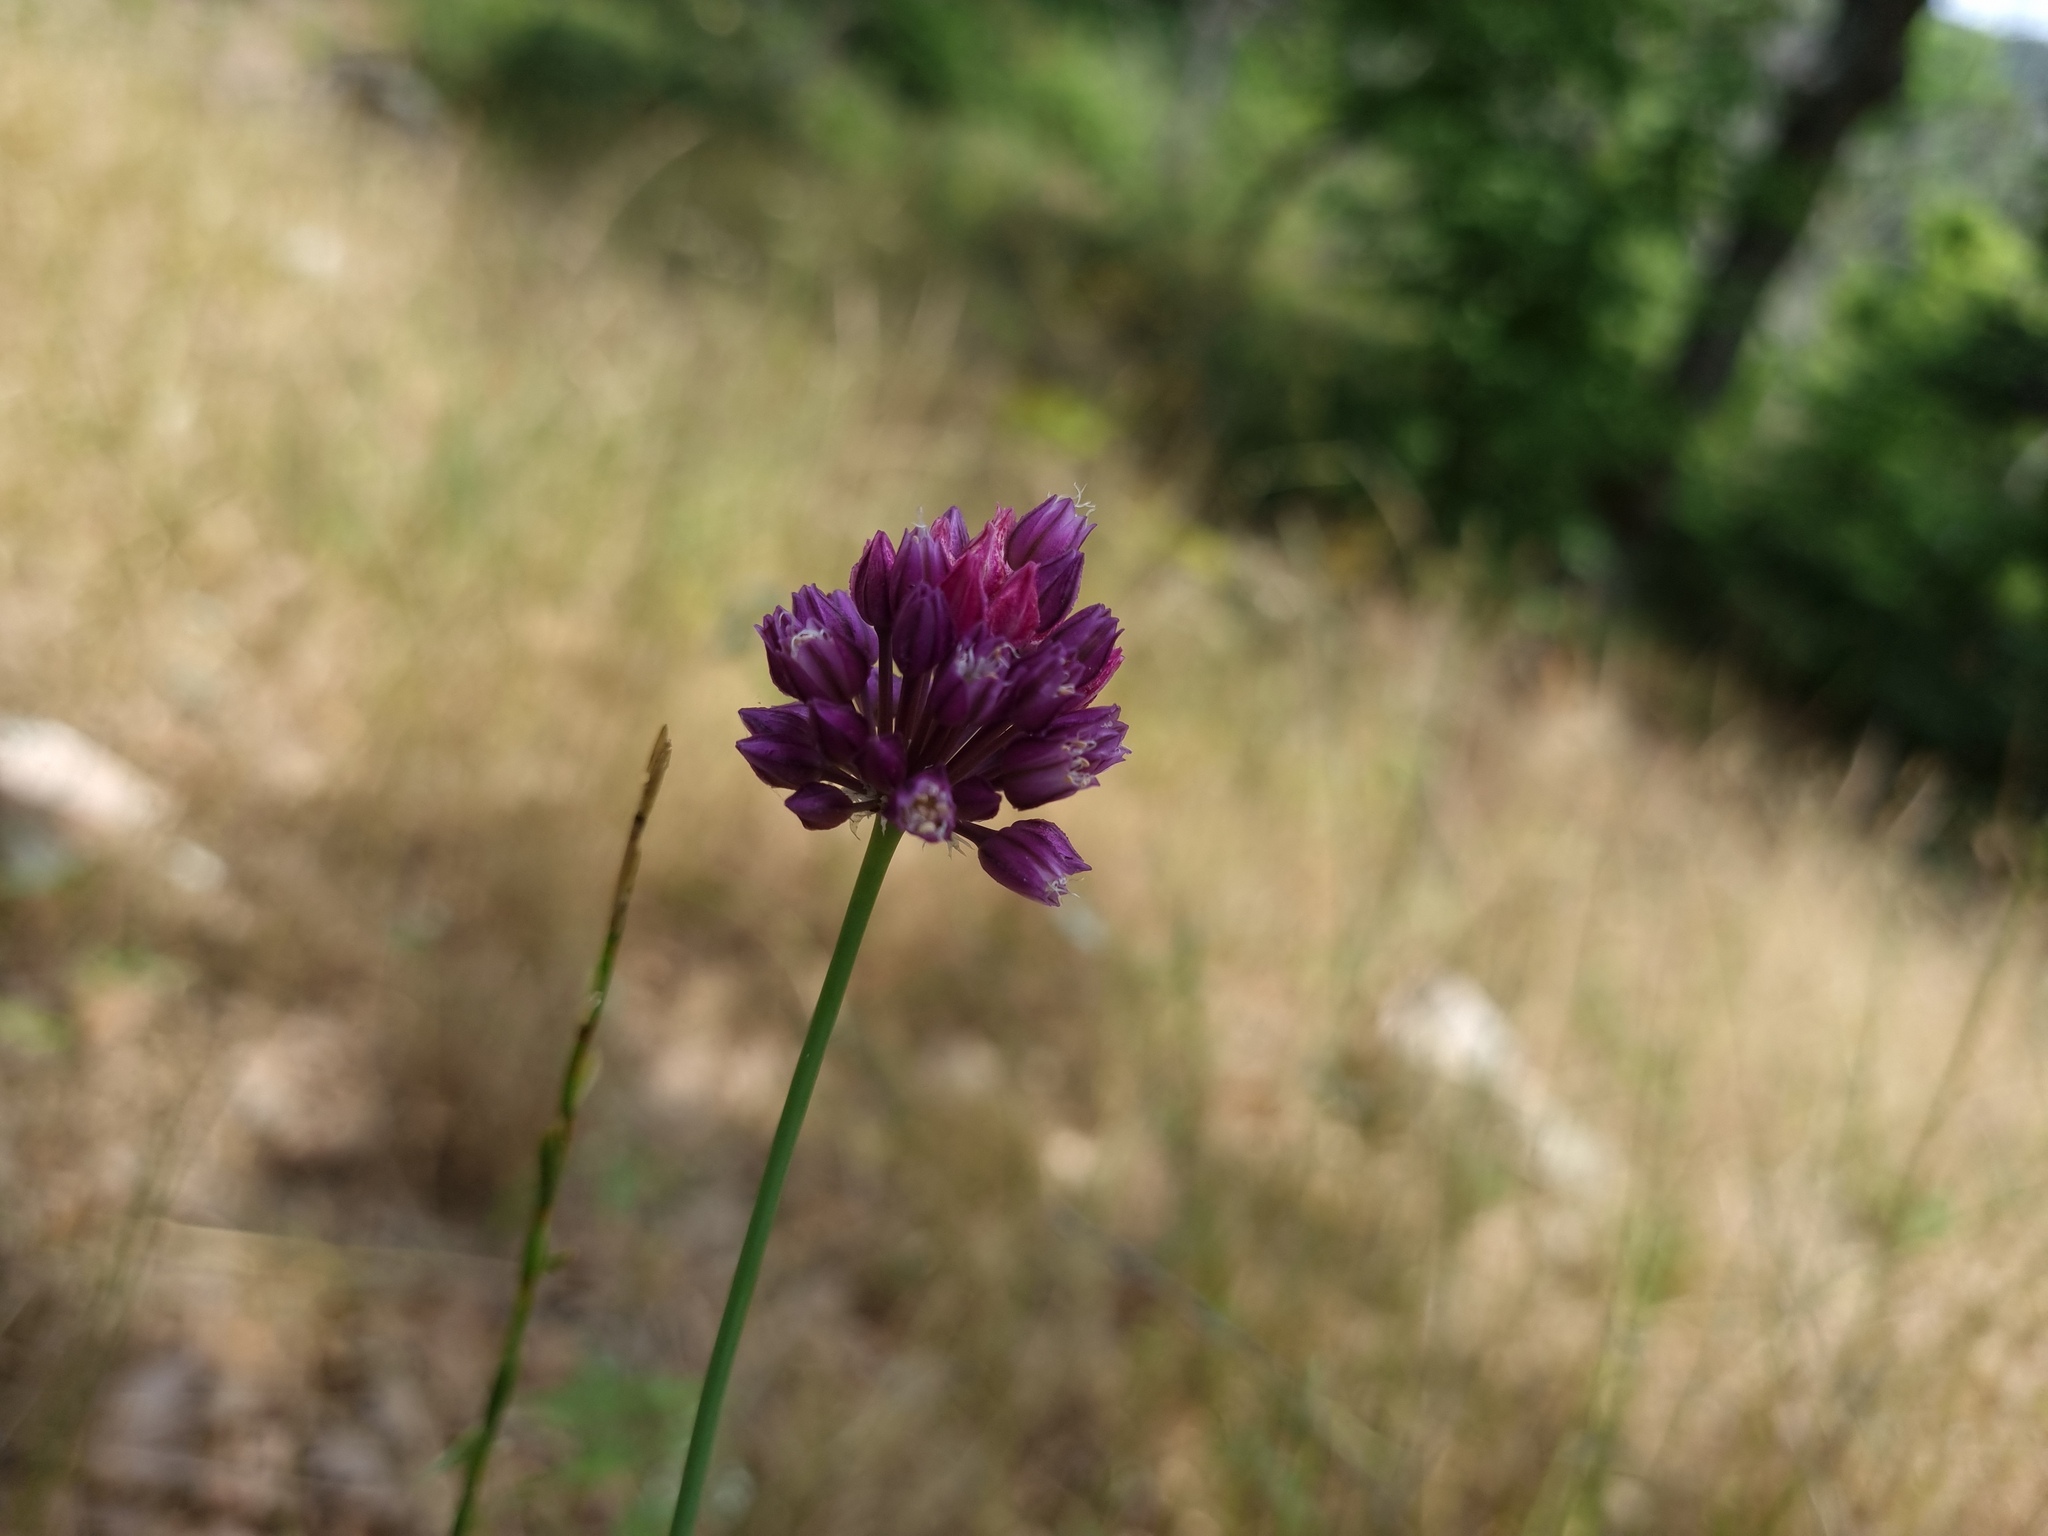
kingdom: Plantae
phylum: Tracheophyta
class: Liliopsida
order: Asparagales
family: Amaryllidaceae
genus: Allium
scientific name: Allium rotundum
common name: Sand leek
